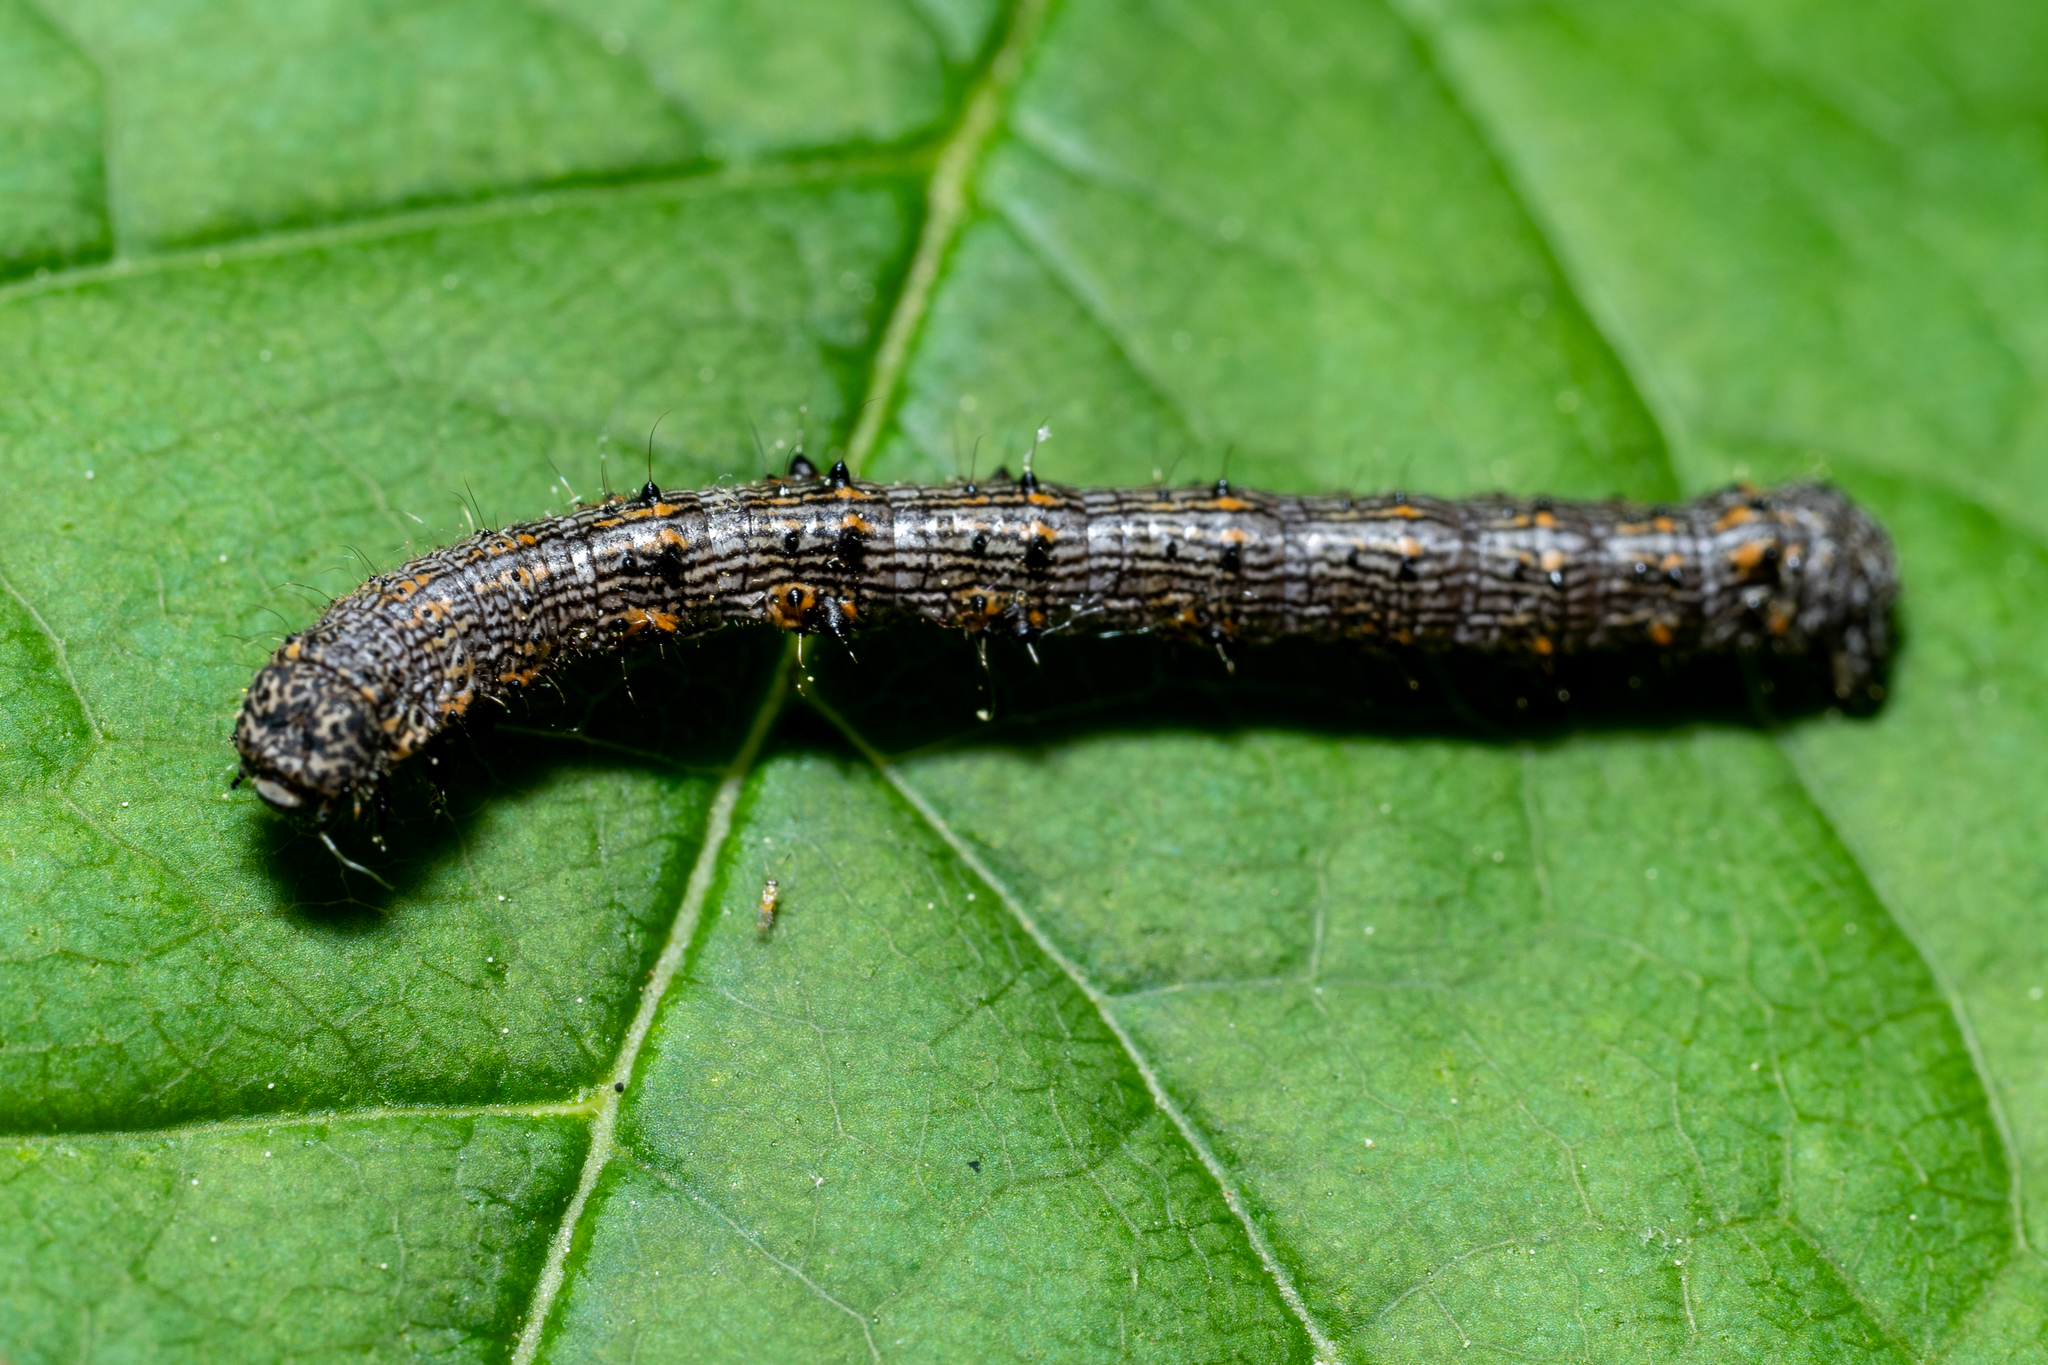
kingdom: Animalia
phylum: Arthropoda
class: Insecta
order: Lepidoptera
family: Geometridae
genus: Phigalia
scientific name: Phigalia titea
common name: Spiny looper
